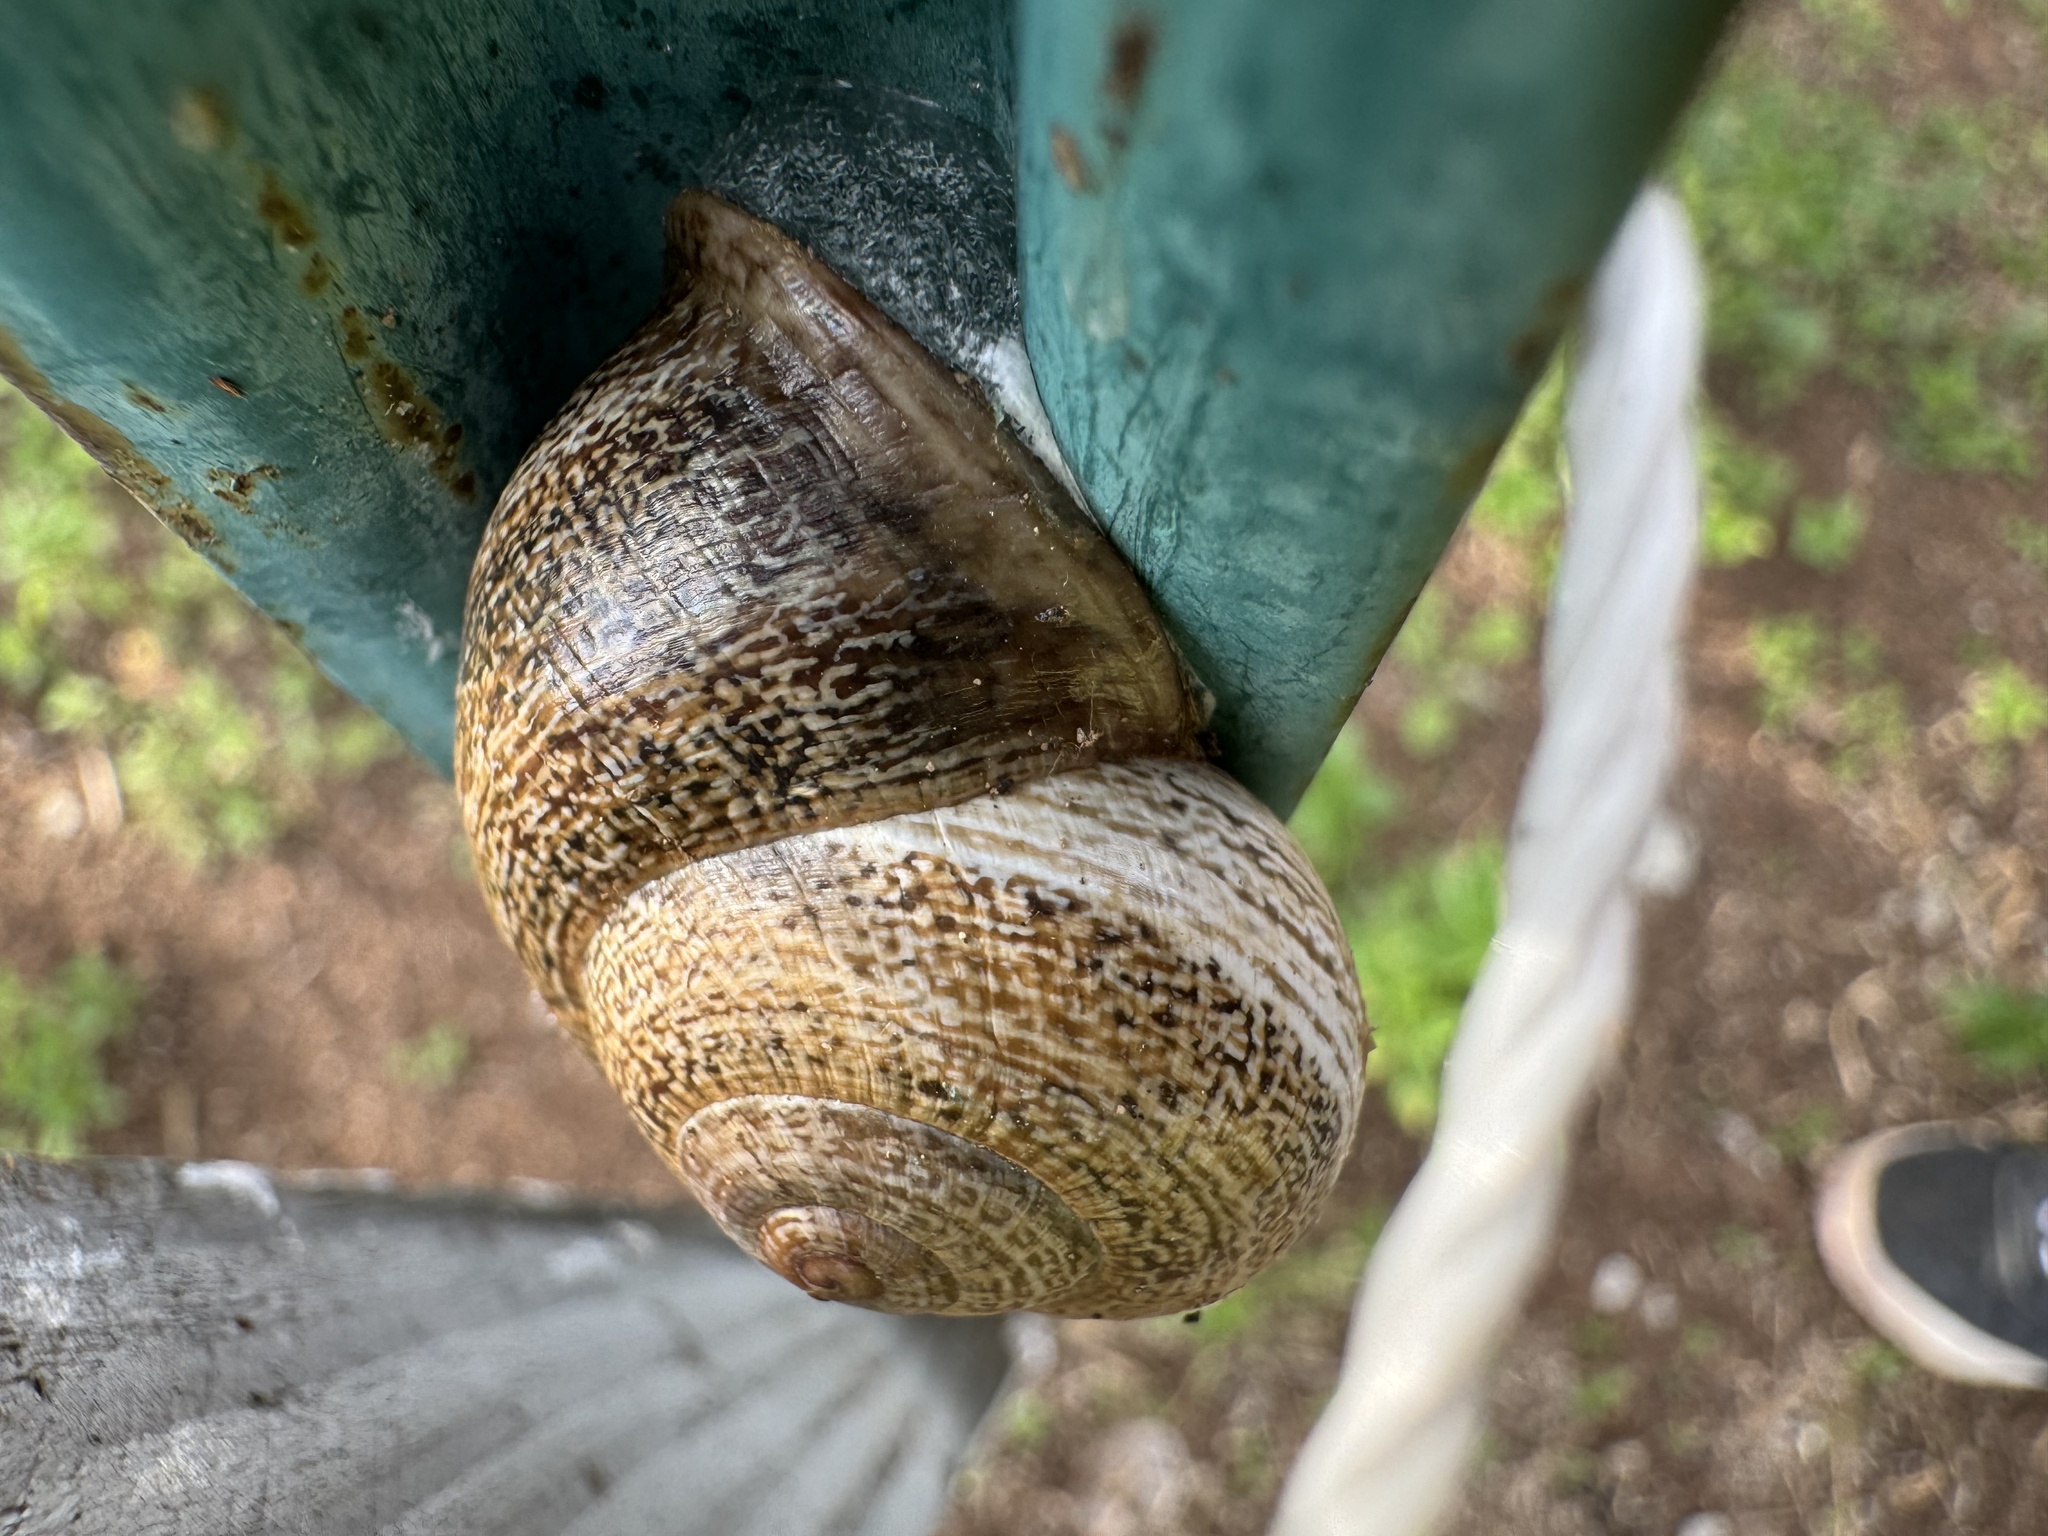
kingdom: Animalia
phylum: Mollusca
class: Gastropoda
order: Stylommatophora
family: Helicidae
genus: Otala
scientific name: Otala lactea
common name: Milk snail
